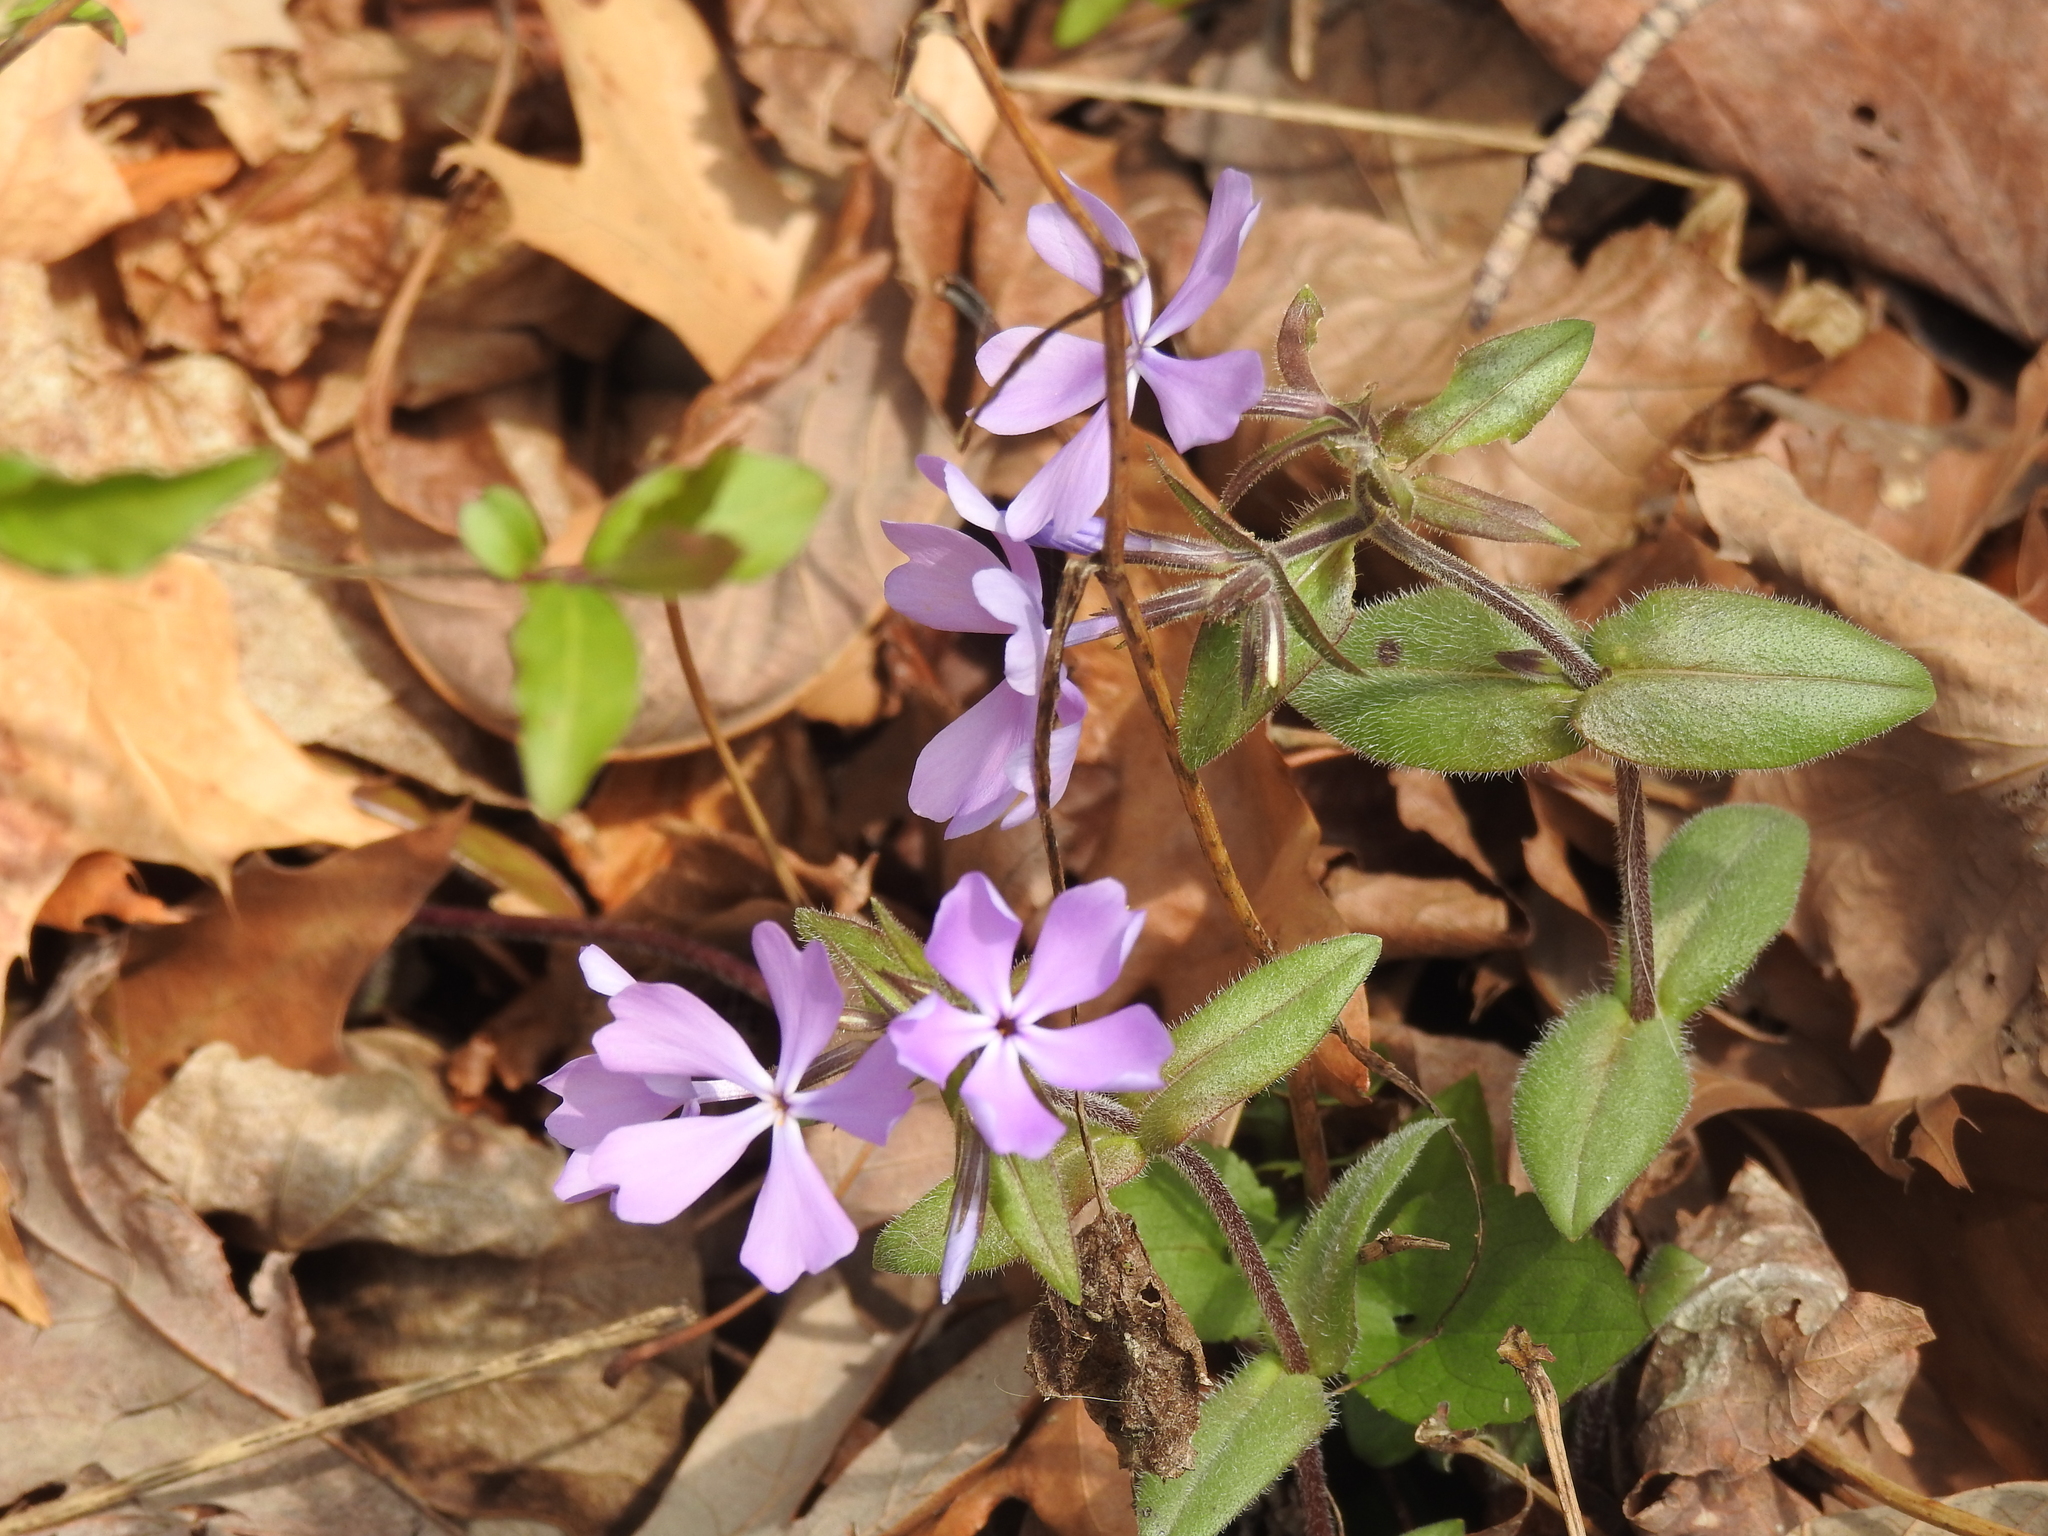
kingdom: Plantae
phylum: Tracheophyta
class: Magnoliopsida
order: Ericales
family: Polemoniaceae
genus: Phlox
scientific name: Phlox divaricata
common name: Blue phlox
